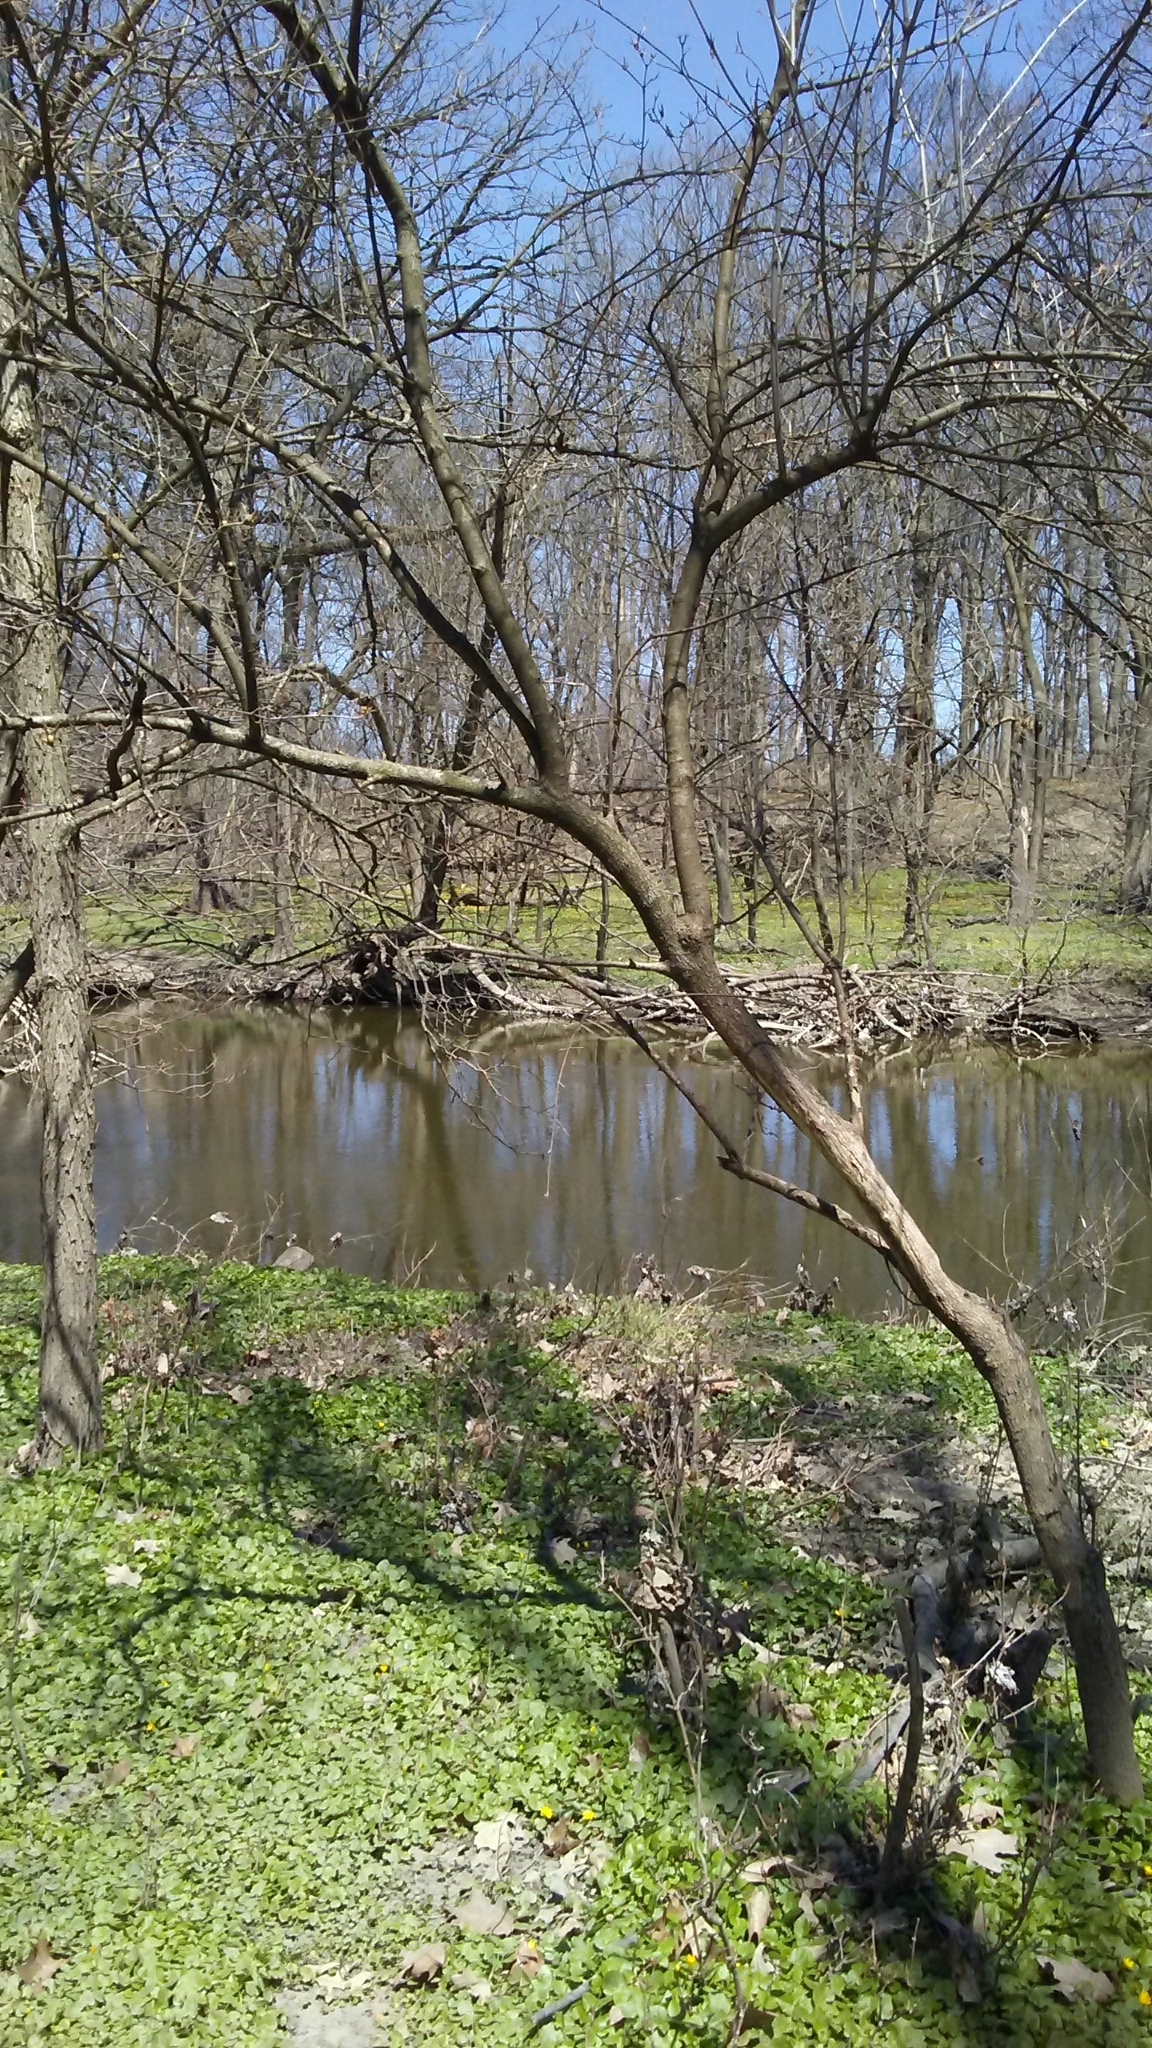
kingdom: Plantae
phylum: Tracheophyta
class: Magnoliopsida
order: Dipsacales
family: Viburnaceae
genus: Viburnum
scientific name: Viburnum lentago
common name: Black haw
